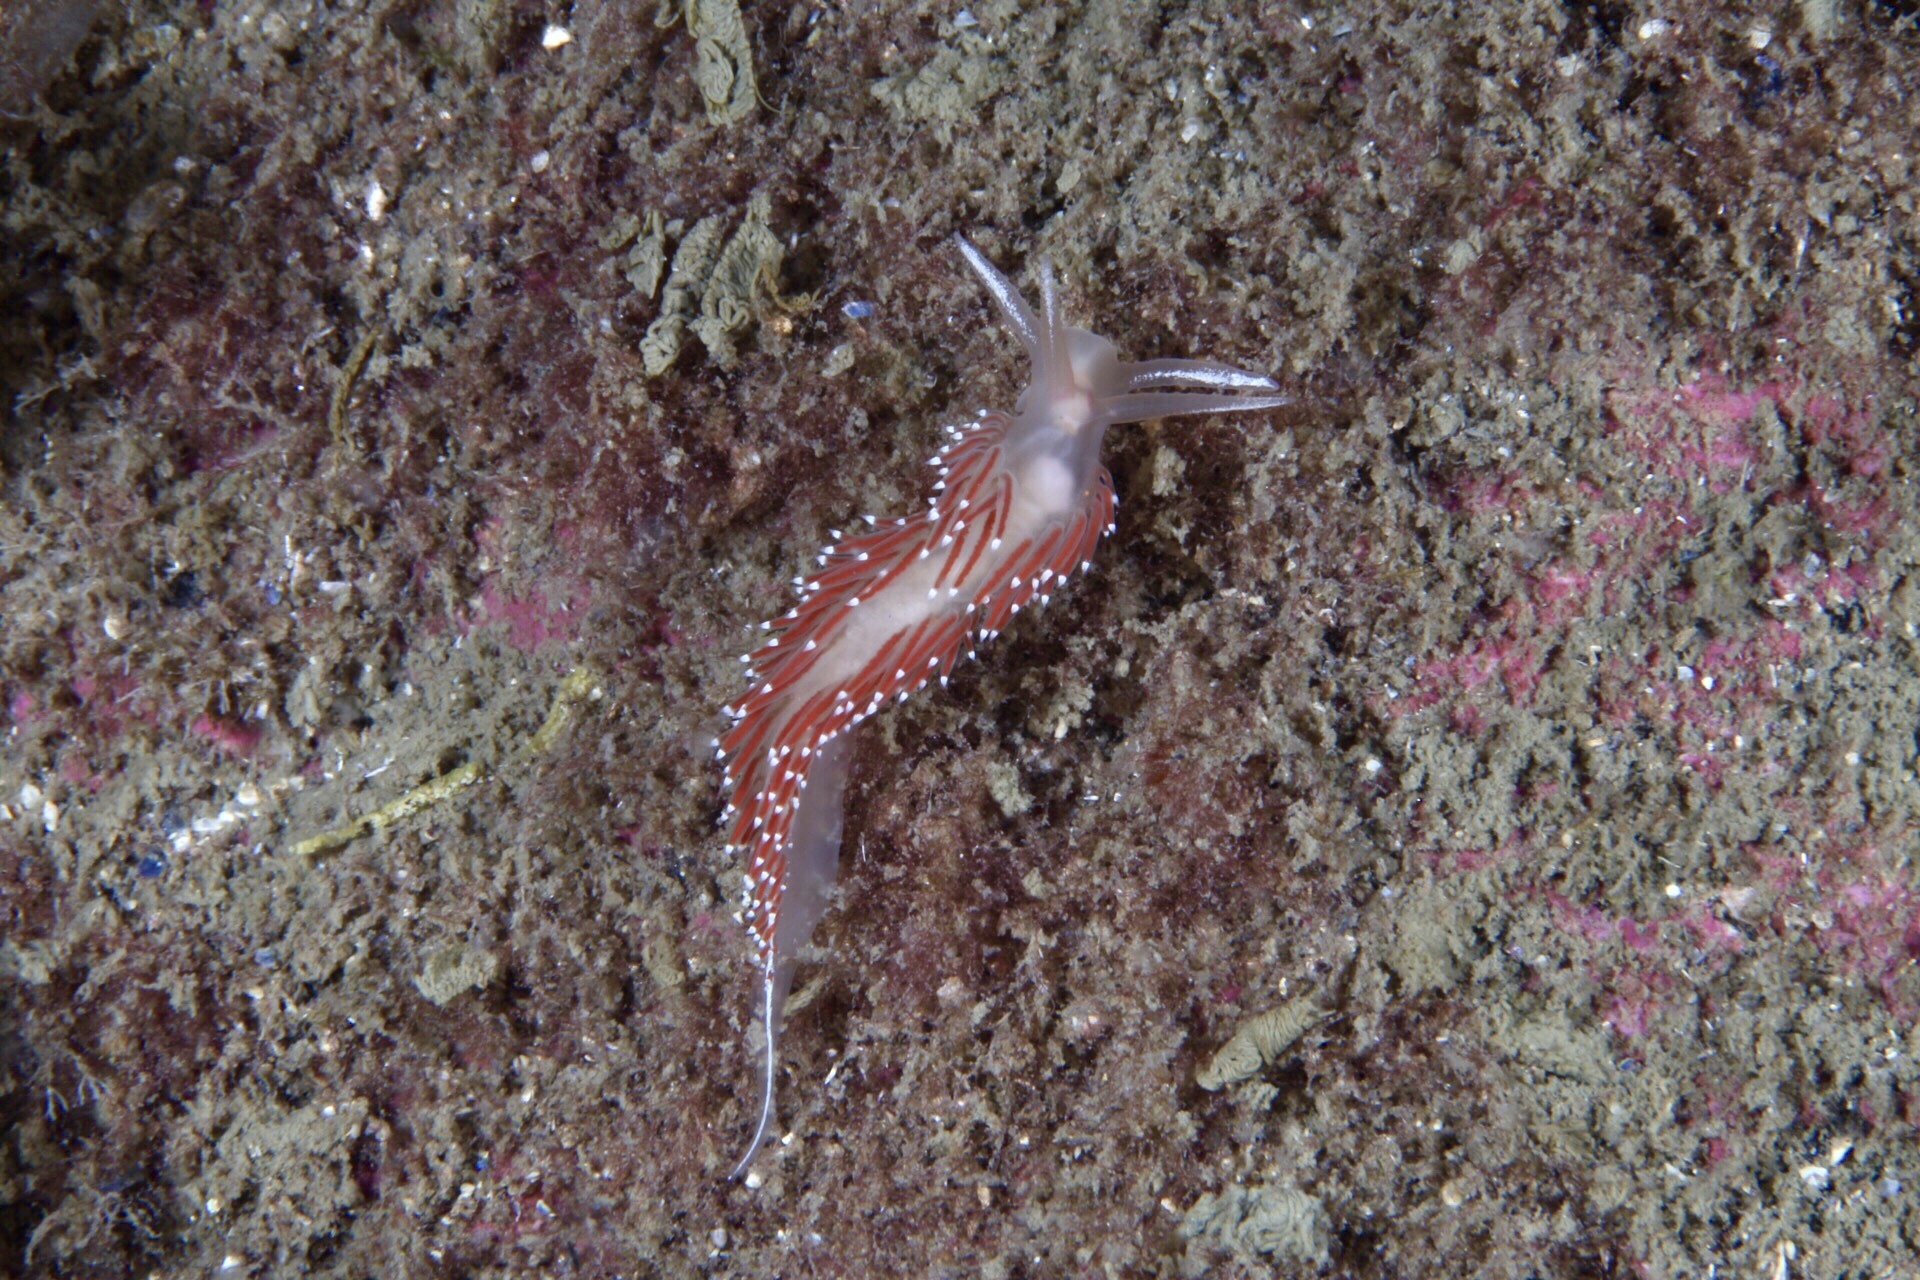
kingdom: Animalia
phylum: Mollusca
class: Gastropoda
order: Nudibranchia
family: Coryphellidae
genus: Coryphella
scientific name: Coryphella verrucosa
